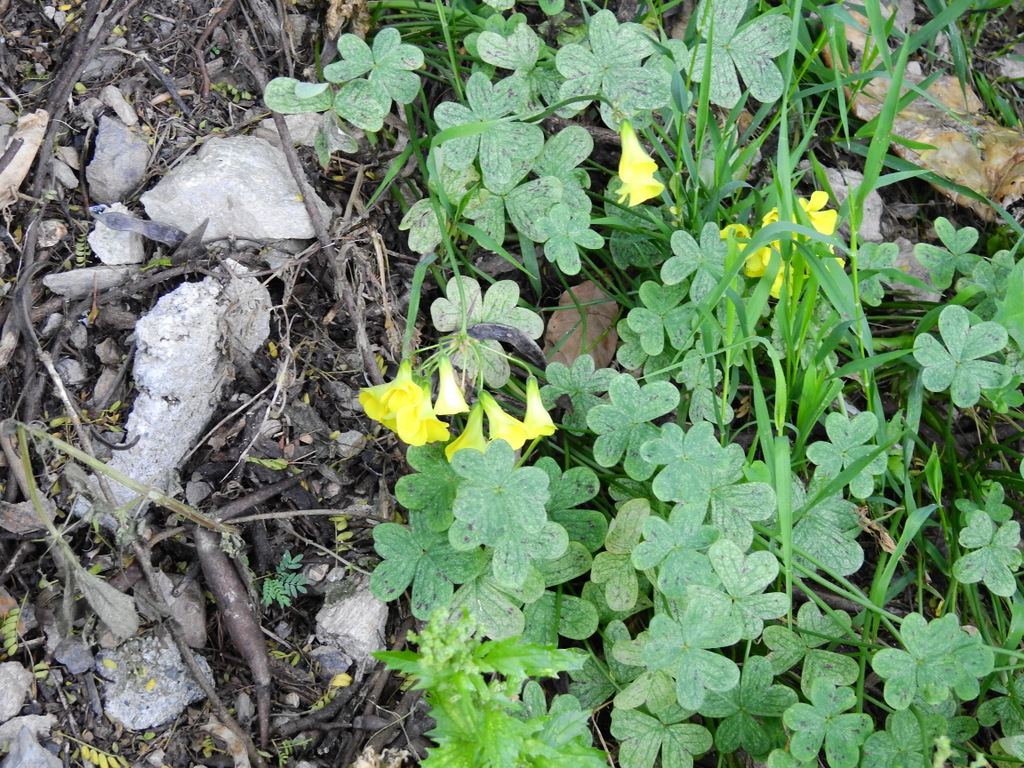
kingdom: Plantae
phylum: Tracheophyta
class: Magnoliopsida
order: Oxalidales
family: Oxalidaceae
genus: Oxalis
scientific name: Oxalis pes-caprae
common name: Bermuda-buttercup
